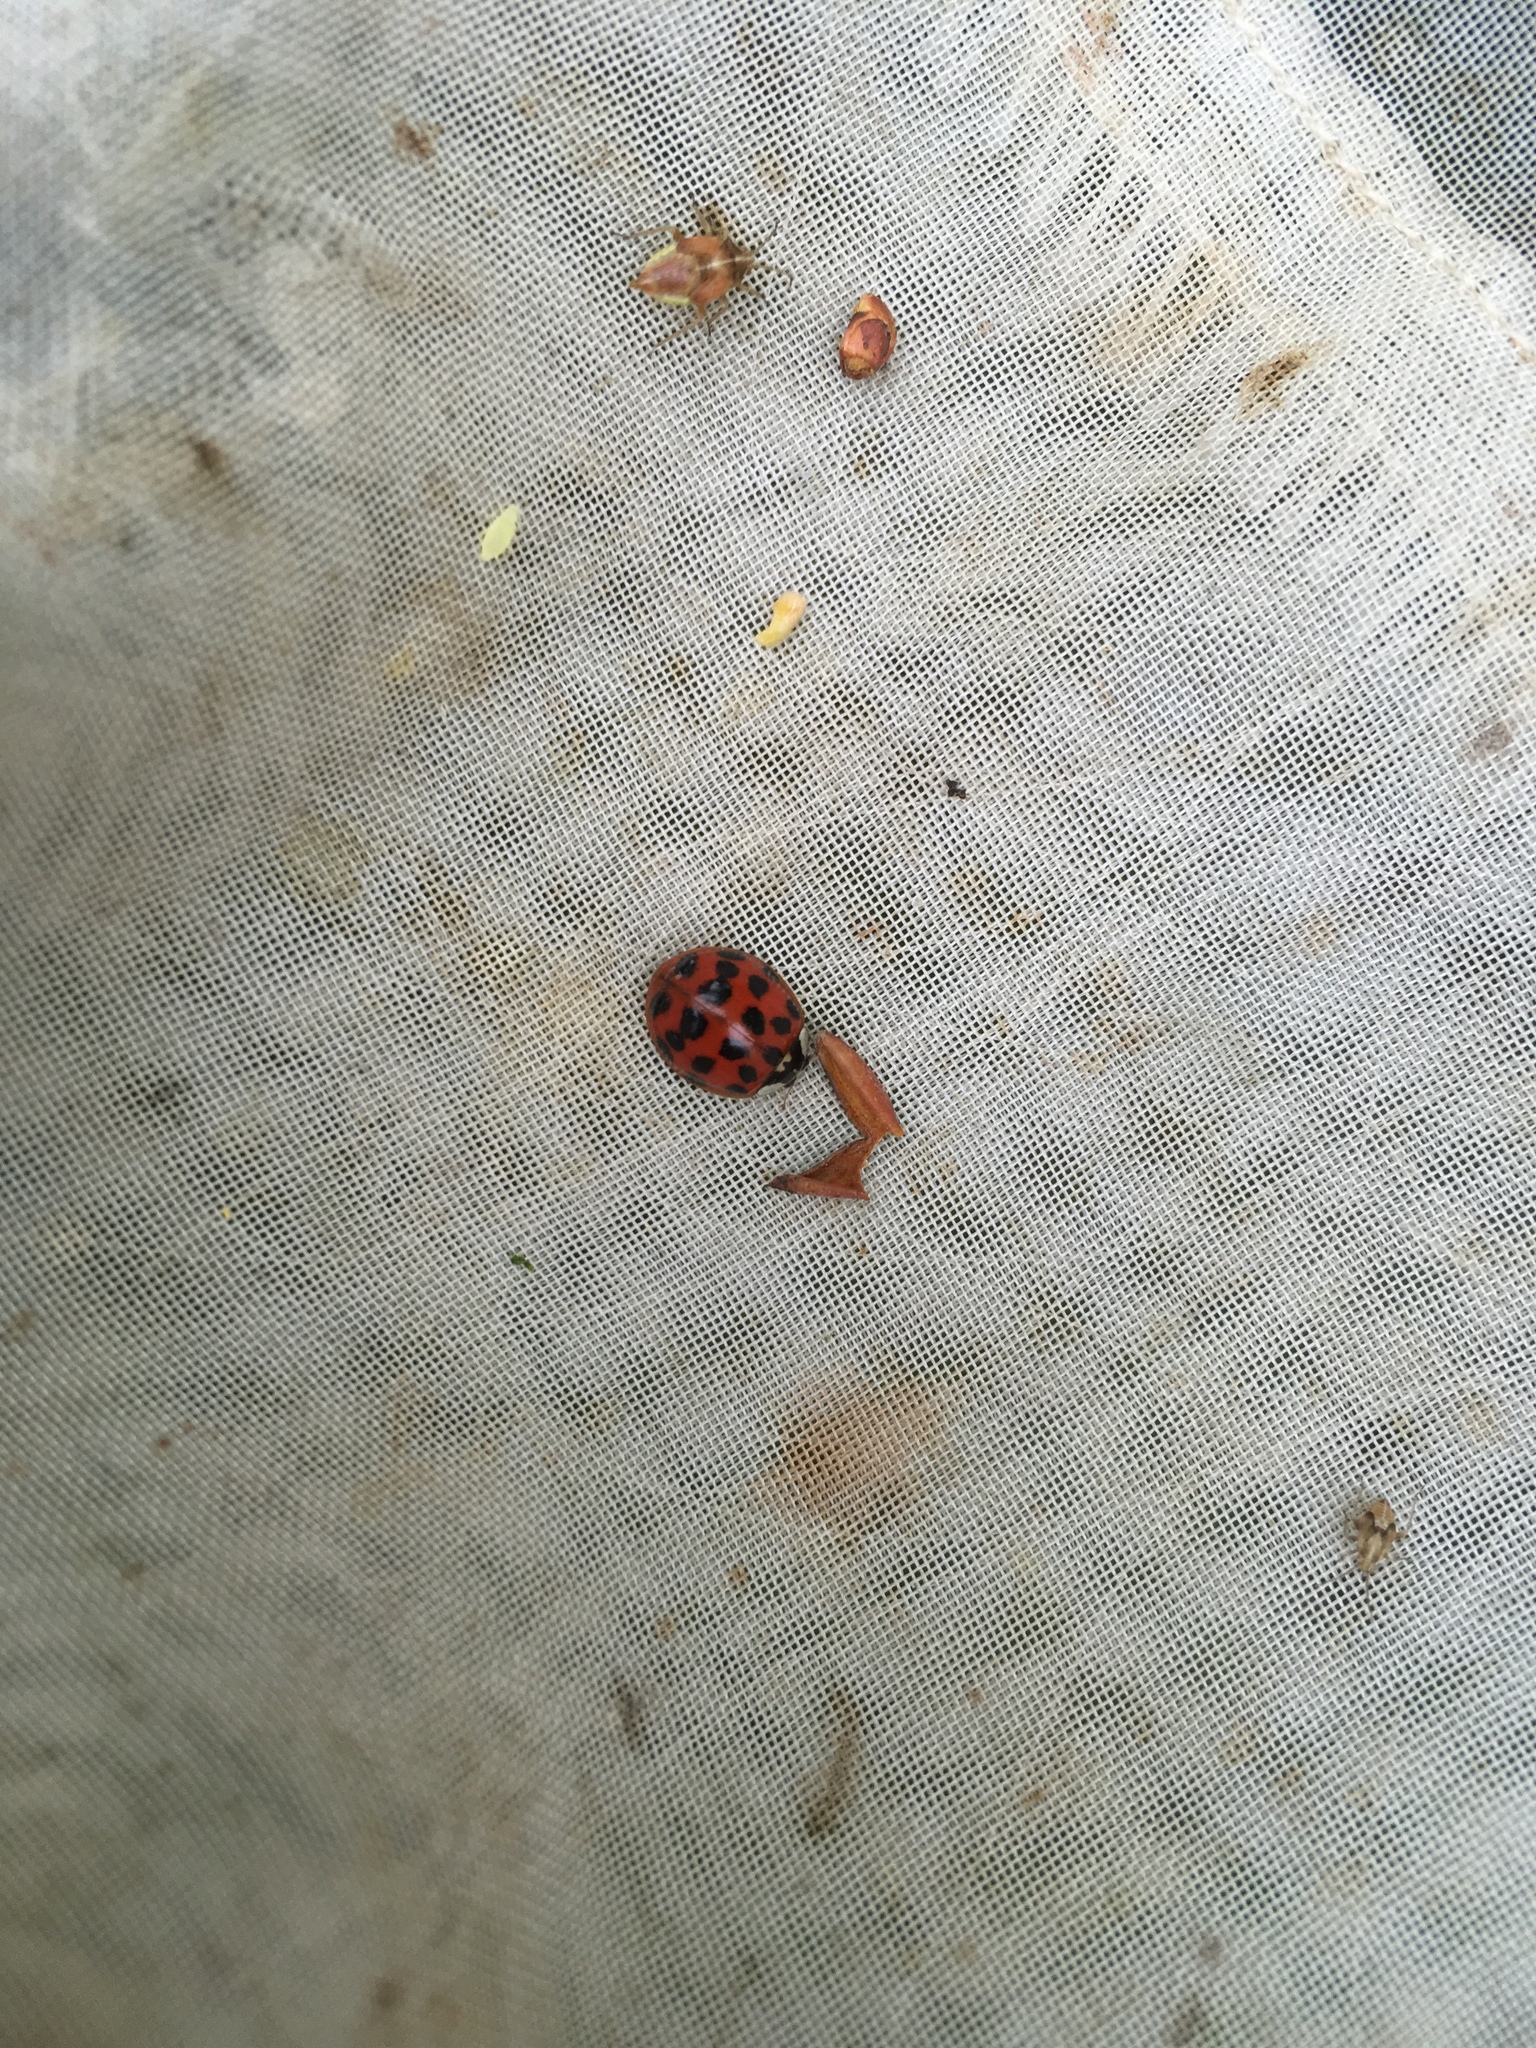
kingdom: Animalia
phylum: Arthropoda
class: Insecta
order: Coleoptera
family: Coccinellidae
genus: Harmonia
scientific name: Harmonia axyridis
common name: Harlequin ladybird
